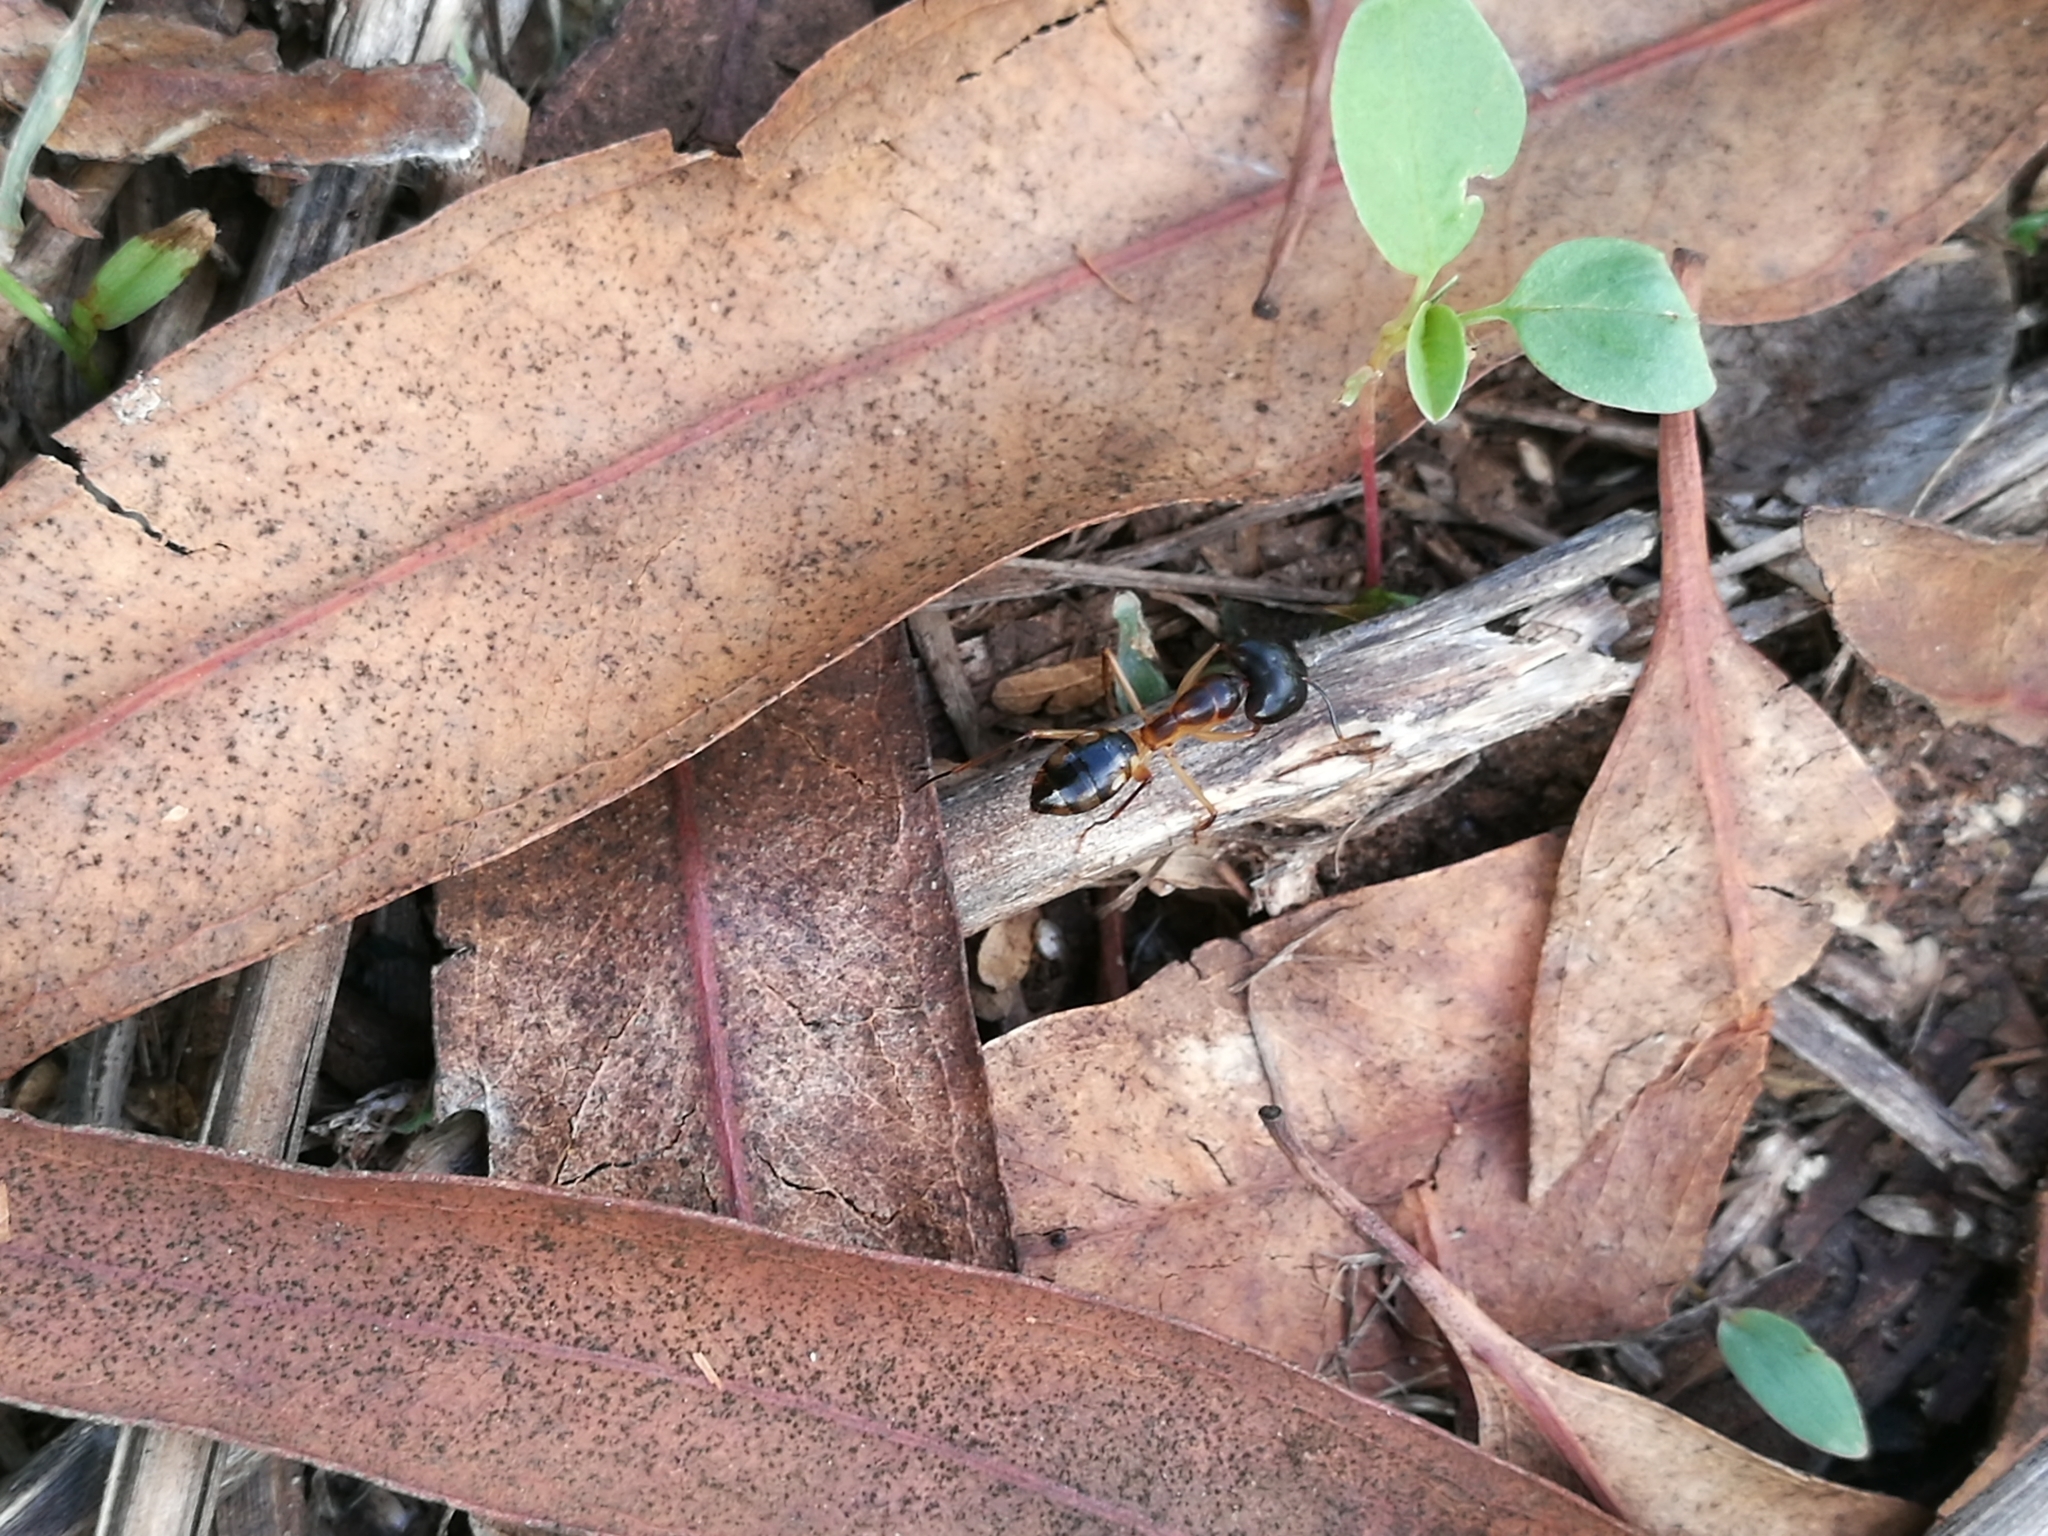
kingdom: Animalia
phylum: Arthropoda
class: Insecta
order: Hymenoptera
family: Formicidae
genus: Camponotus
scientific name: Camponotus maculatus
